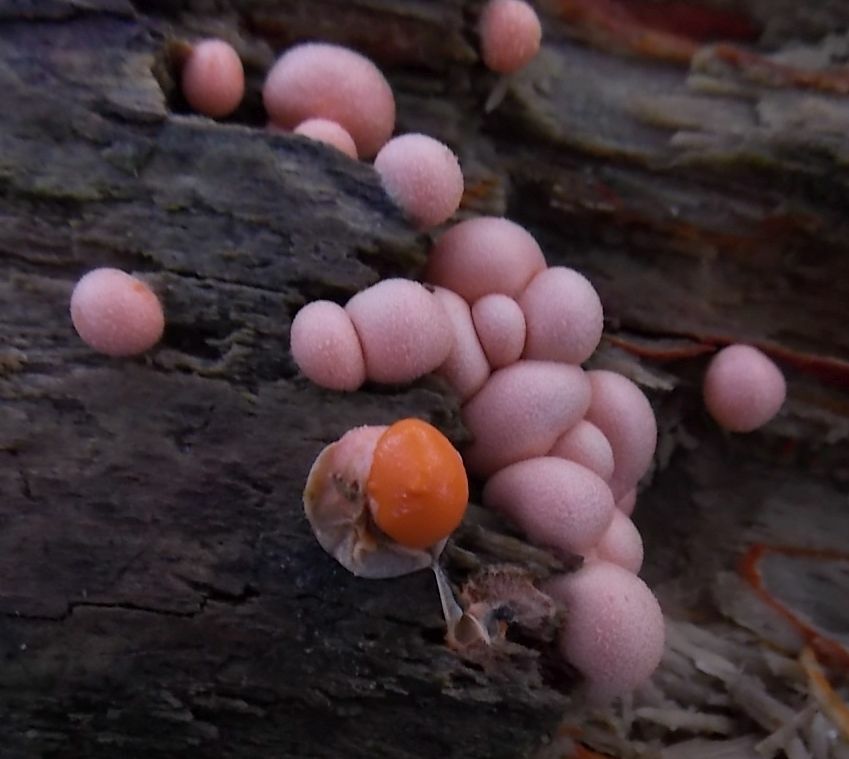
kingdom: Protozoa
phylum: Mycetozoa
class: Myxomycetes
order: Cribrariales
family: Tubiferaceae
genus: Lycogala
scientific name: Lycogala epidendrum
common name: Wolf's milk
